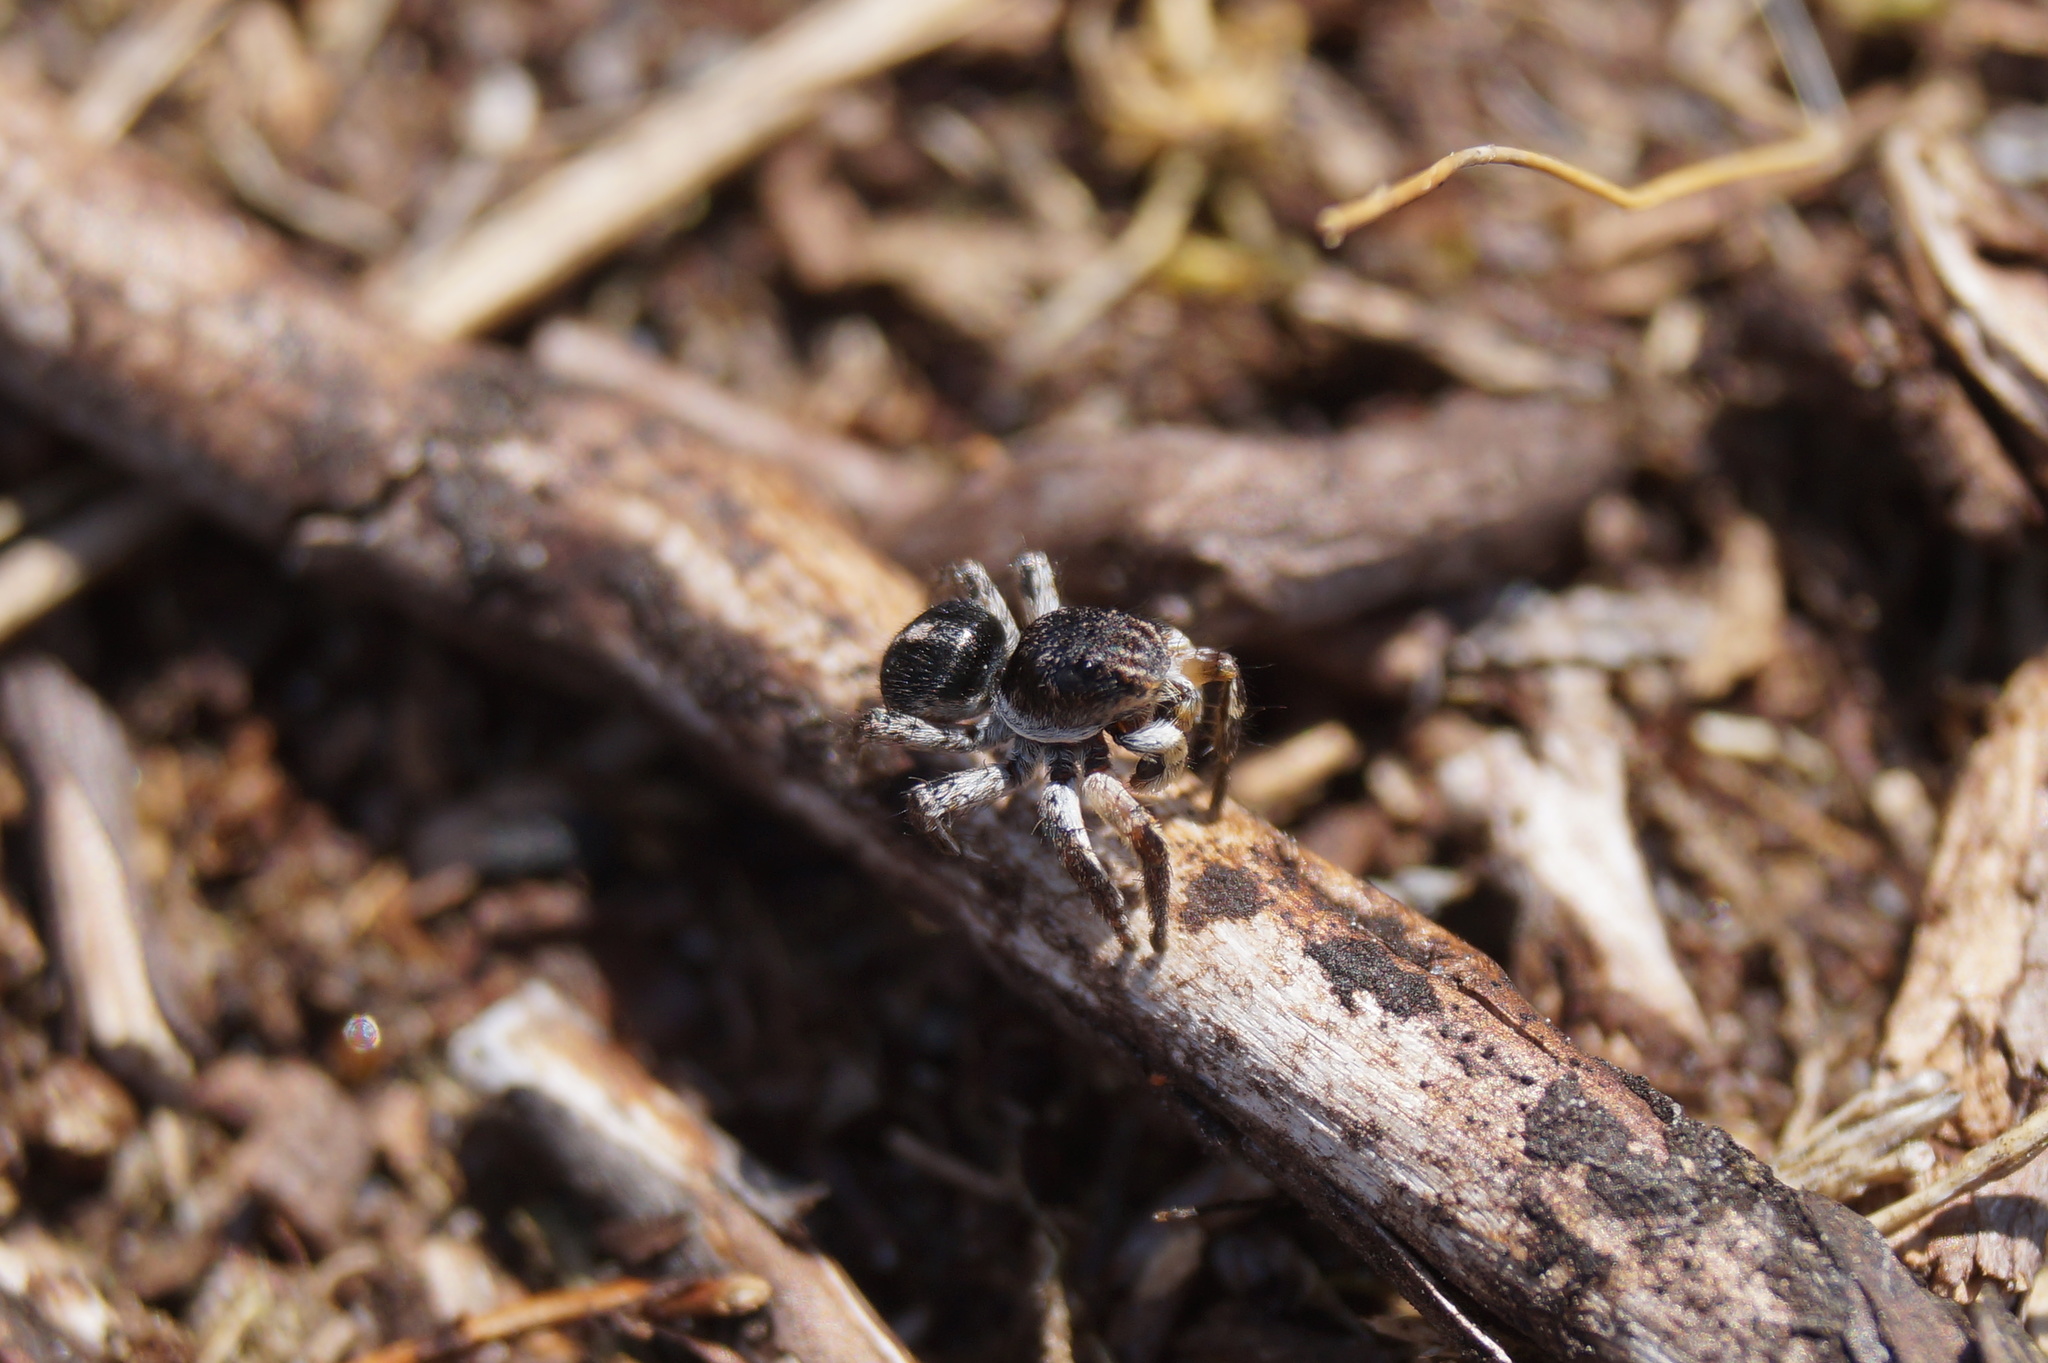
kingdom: Animalia
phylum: Arthropoda
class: Arachnida
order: Araneae
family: Salticidae
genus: Aelurillus
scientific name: Aelurillus v-insignitus
